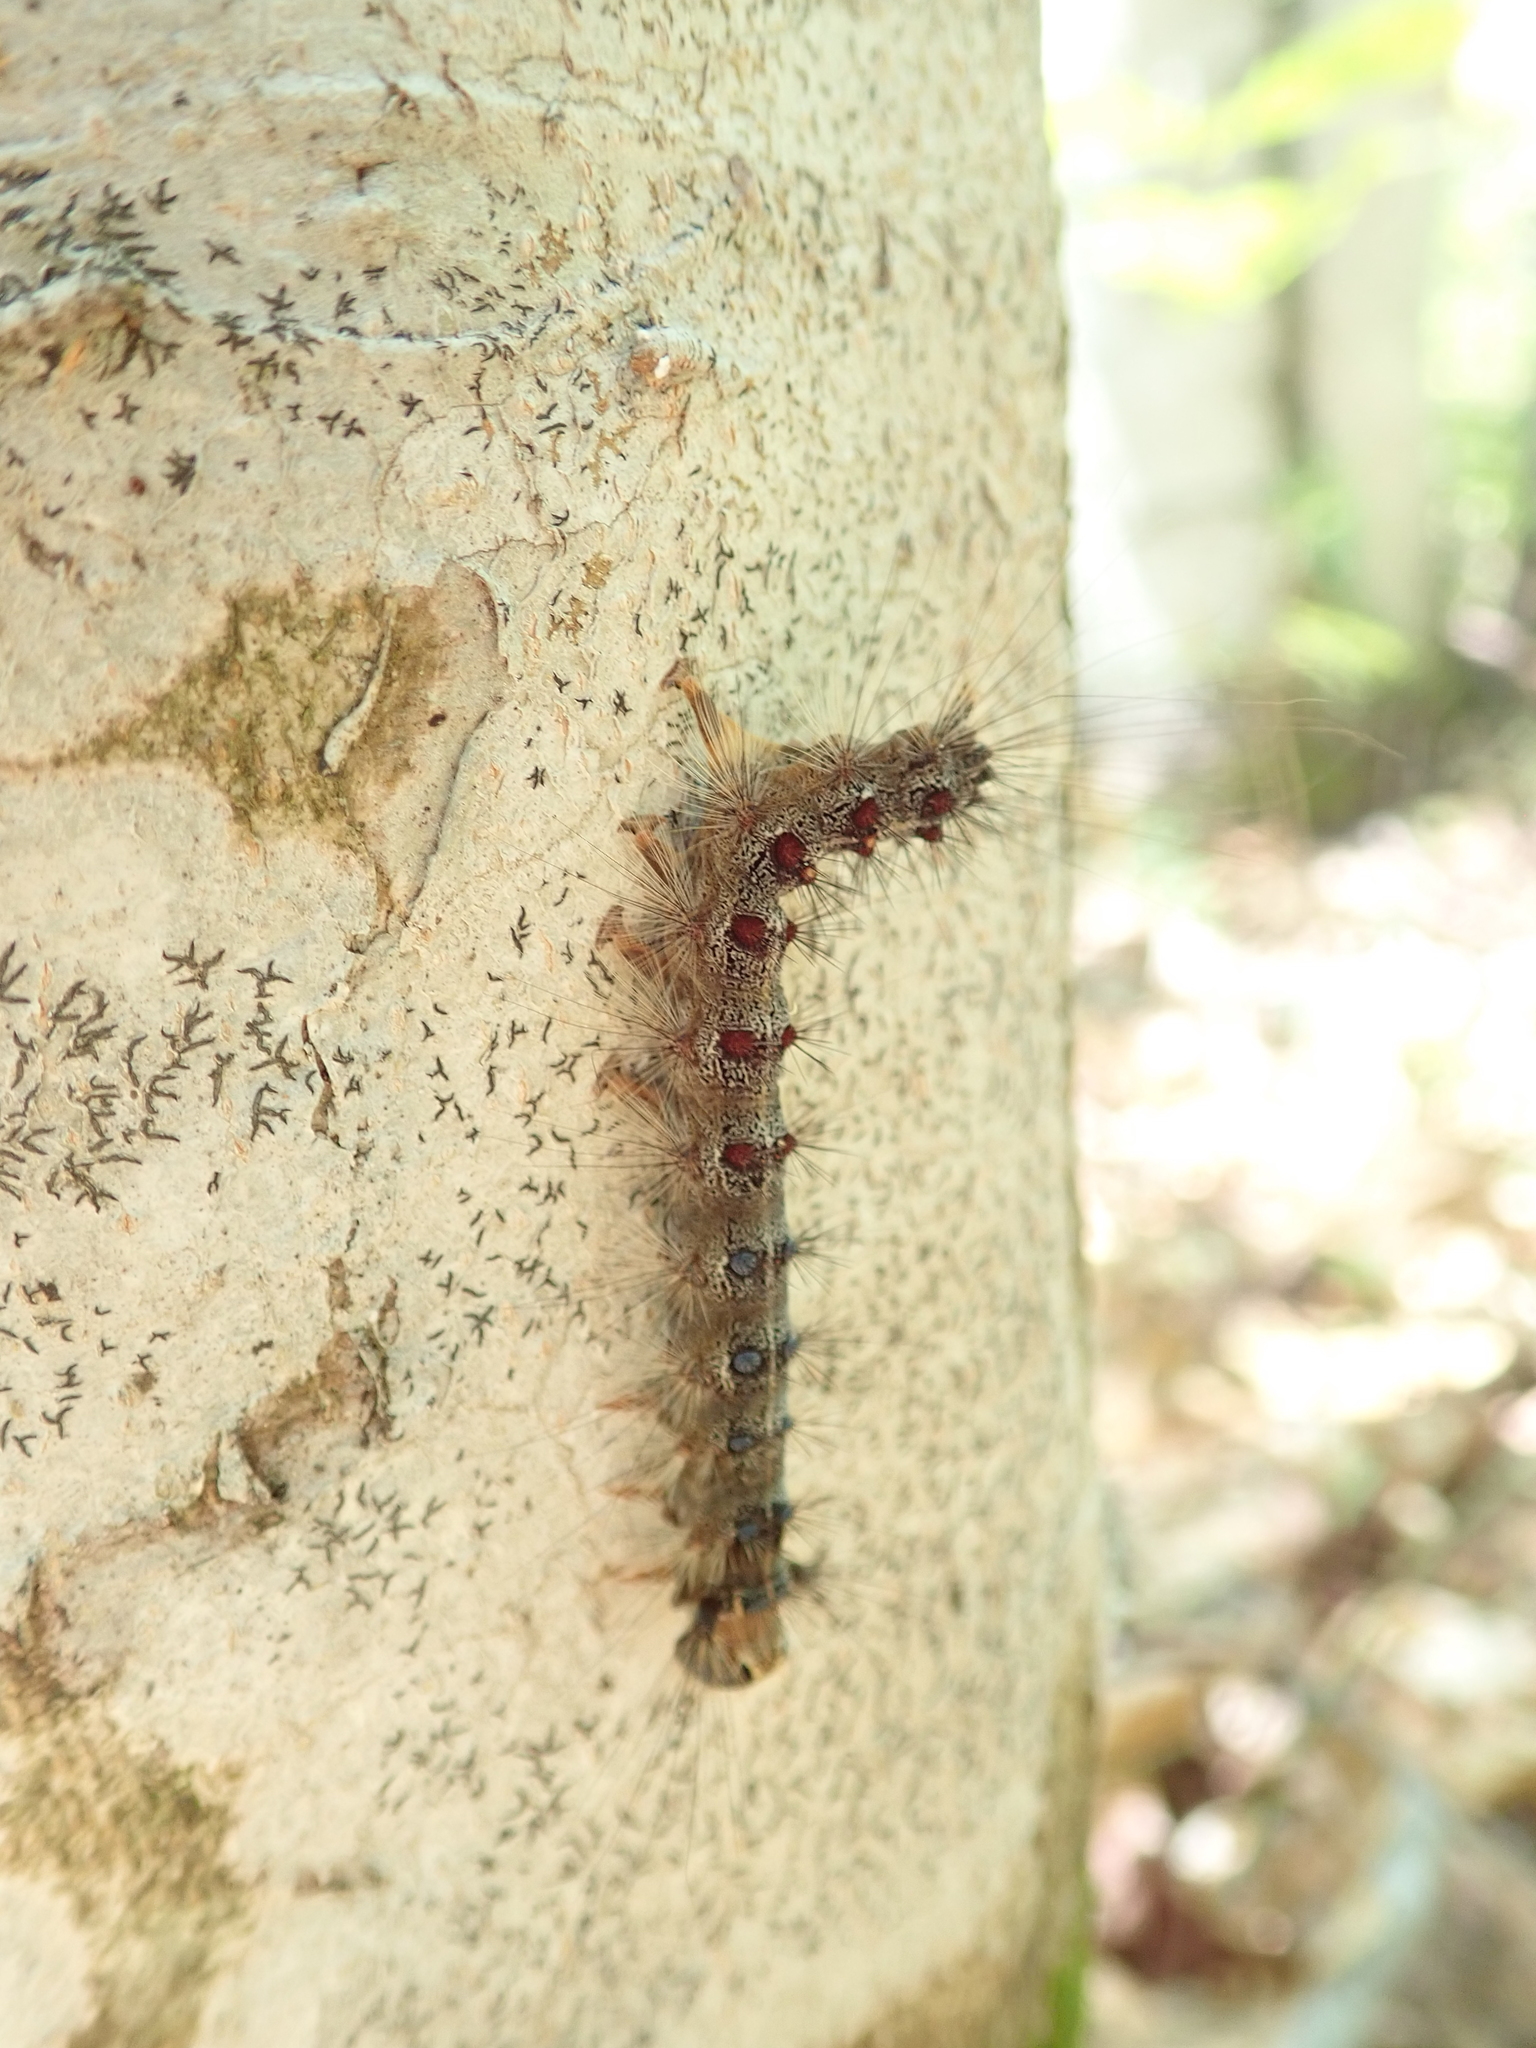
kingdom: Animalia
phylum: Arthropoda
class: Insecta
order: Lepidoptera
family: Erebidae
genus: Lymantria
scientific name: Lymantria dispar
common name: Gypsy moth
